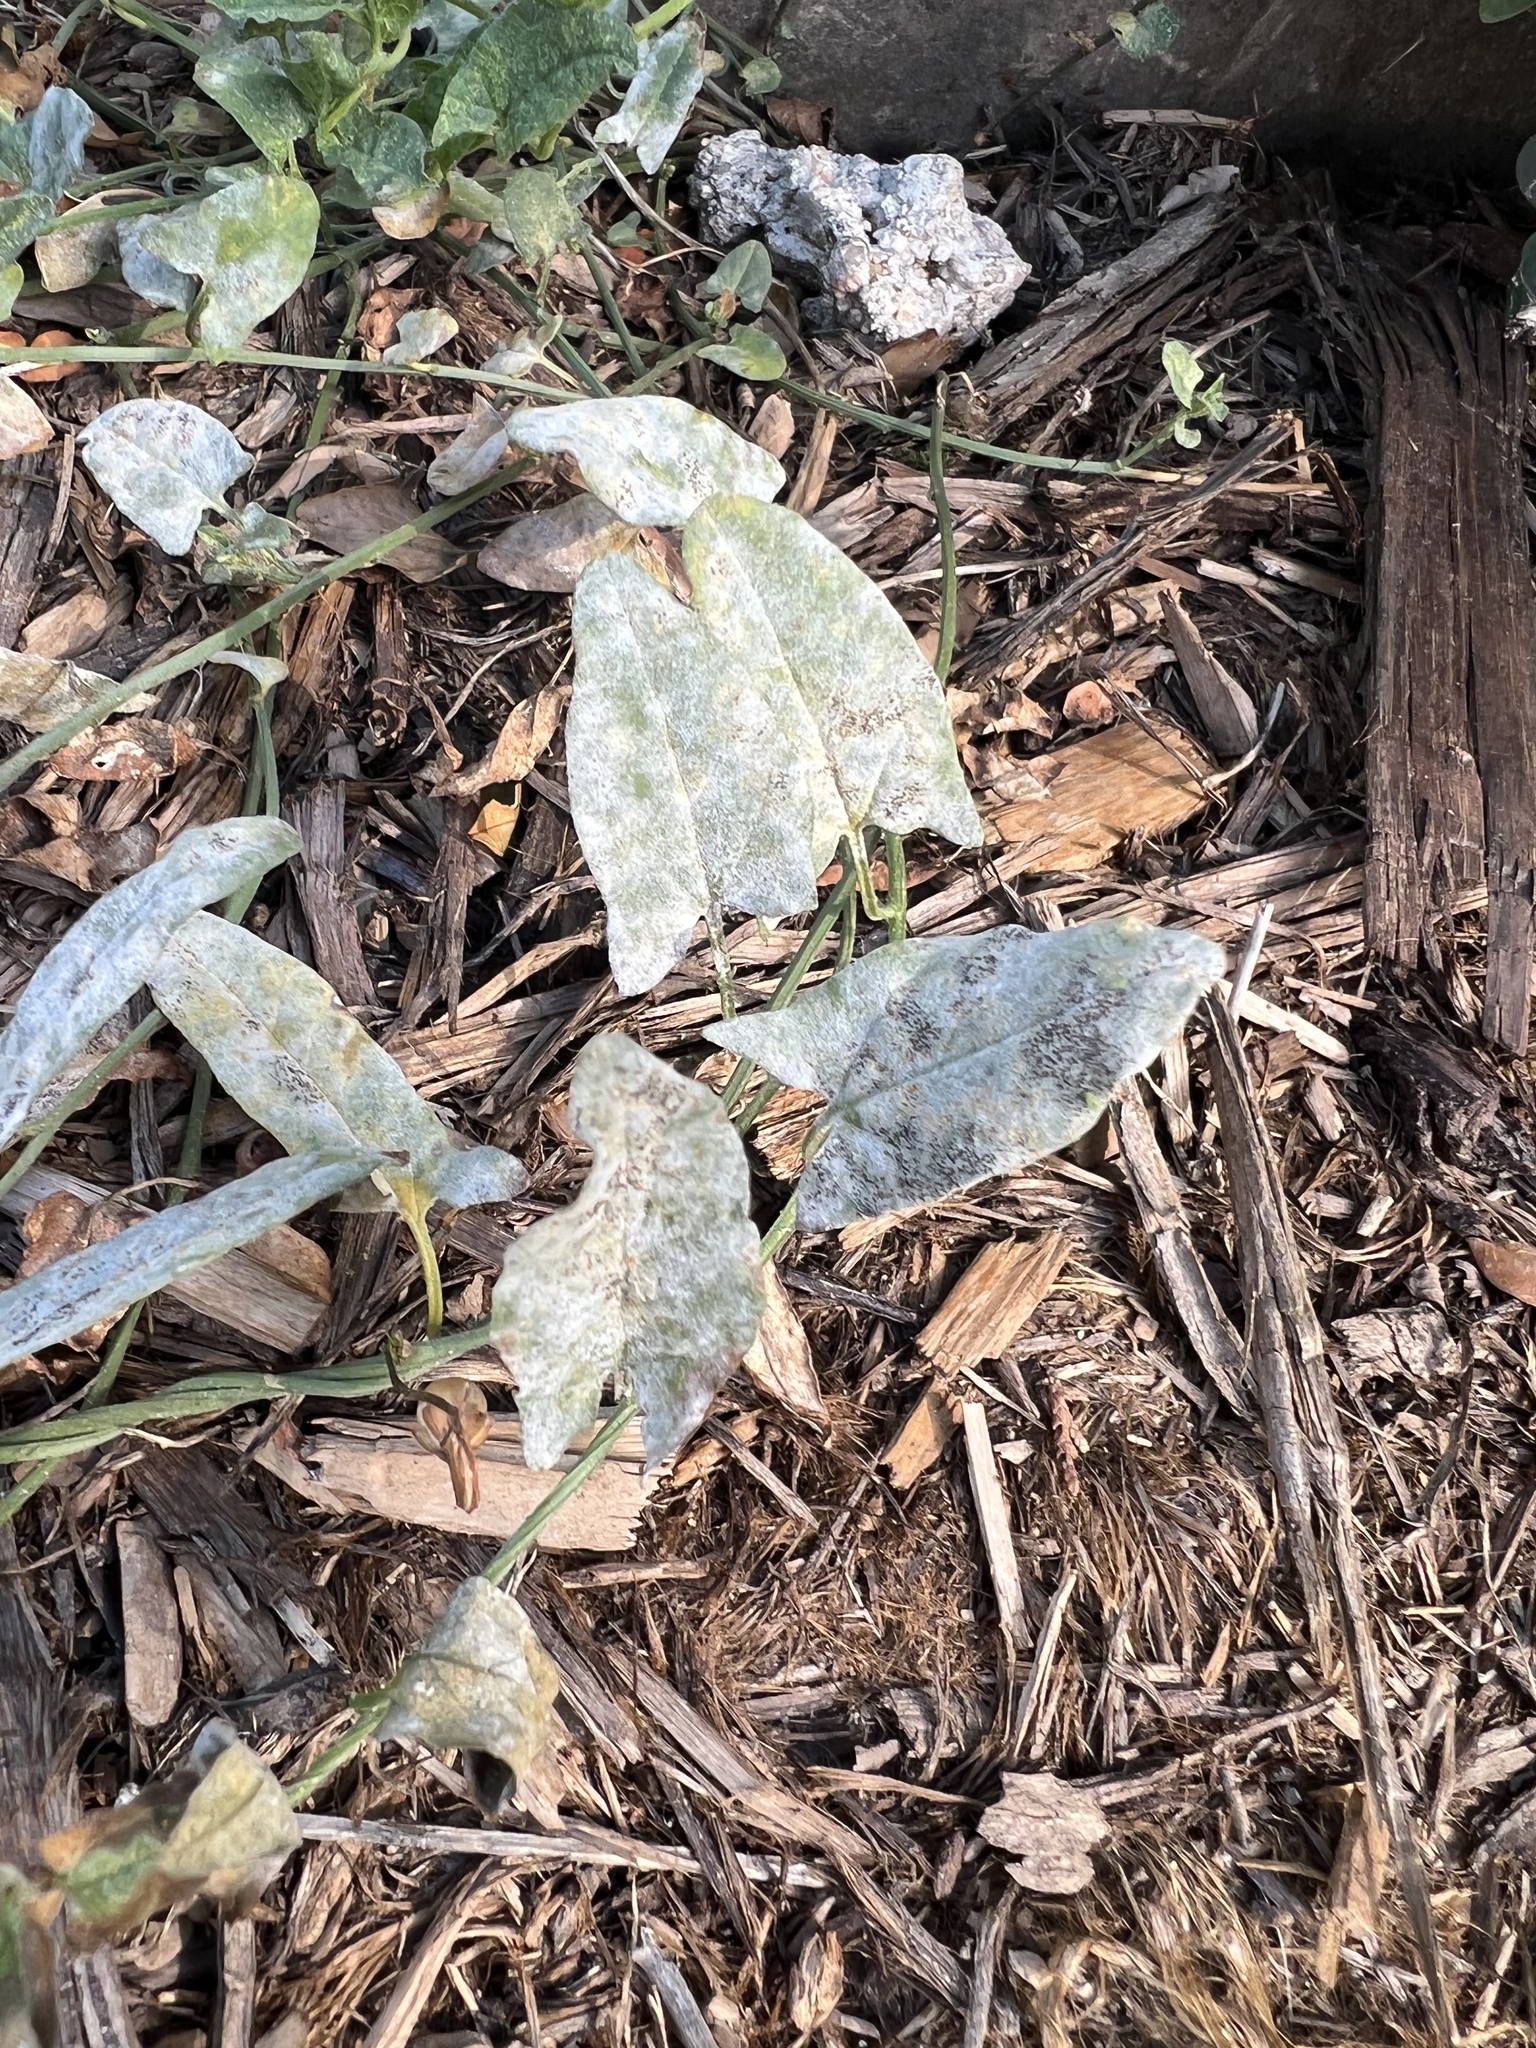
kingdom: Plantae
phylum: Tracheophyta
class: Magnoliopsida
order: Solanales
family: Convolvulaceae
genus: Convolvulus
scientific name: Convolvulus arvensis
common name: Field bindweed
